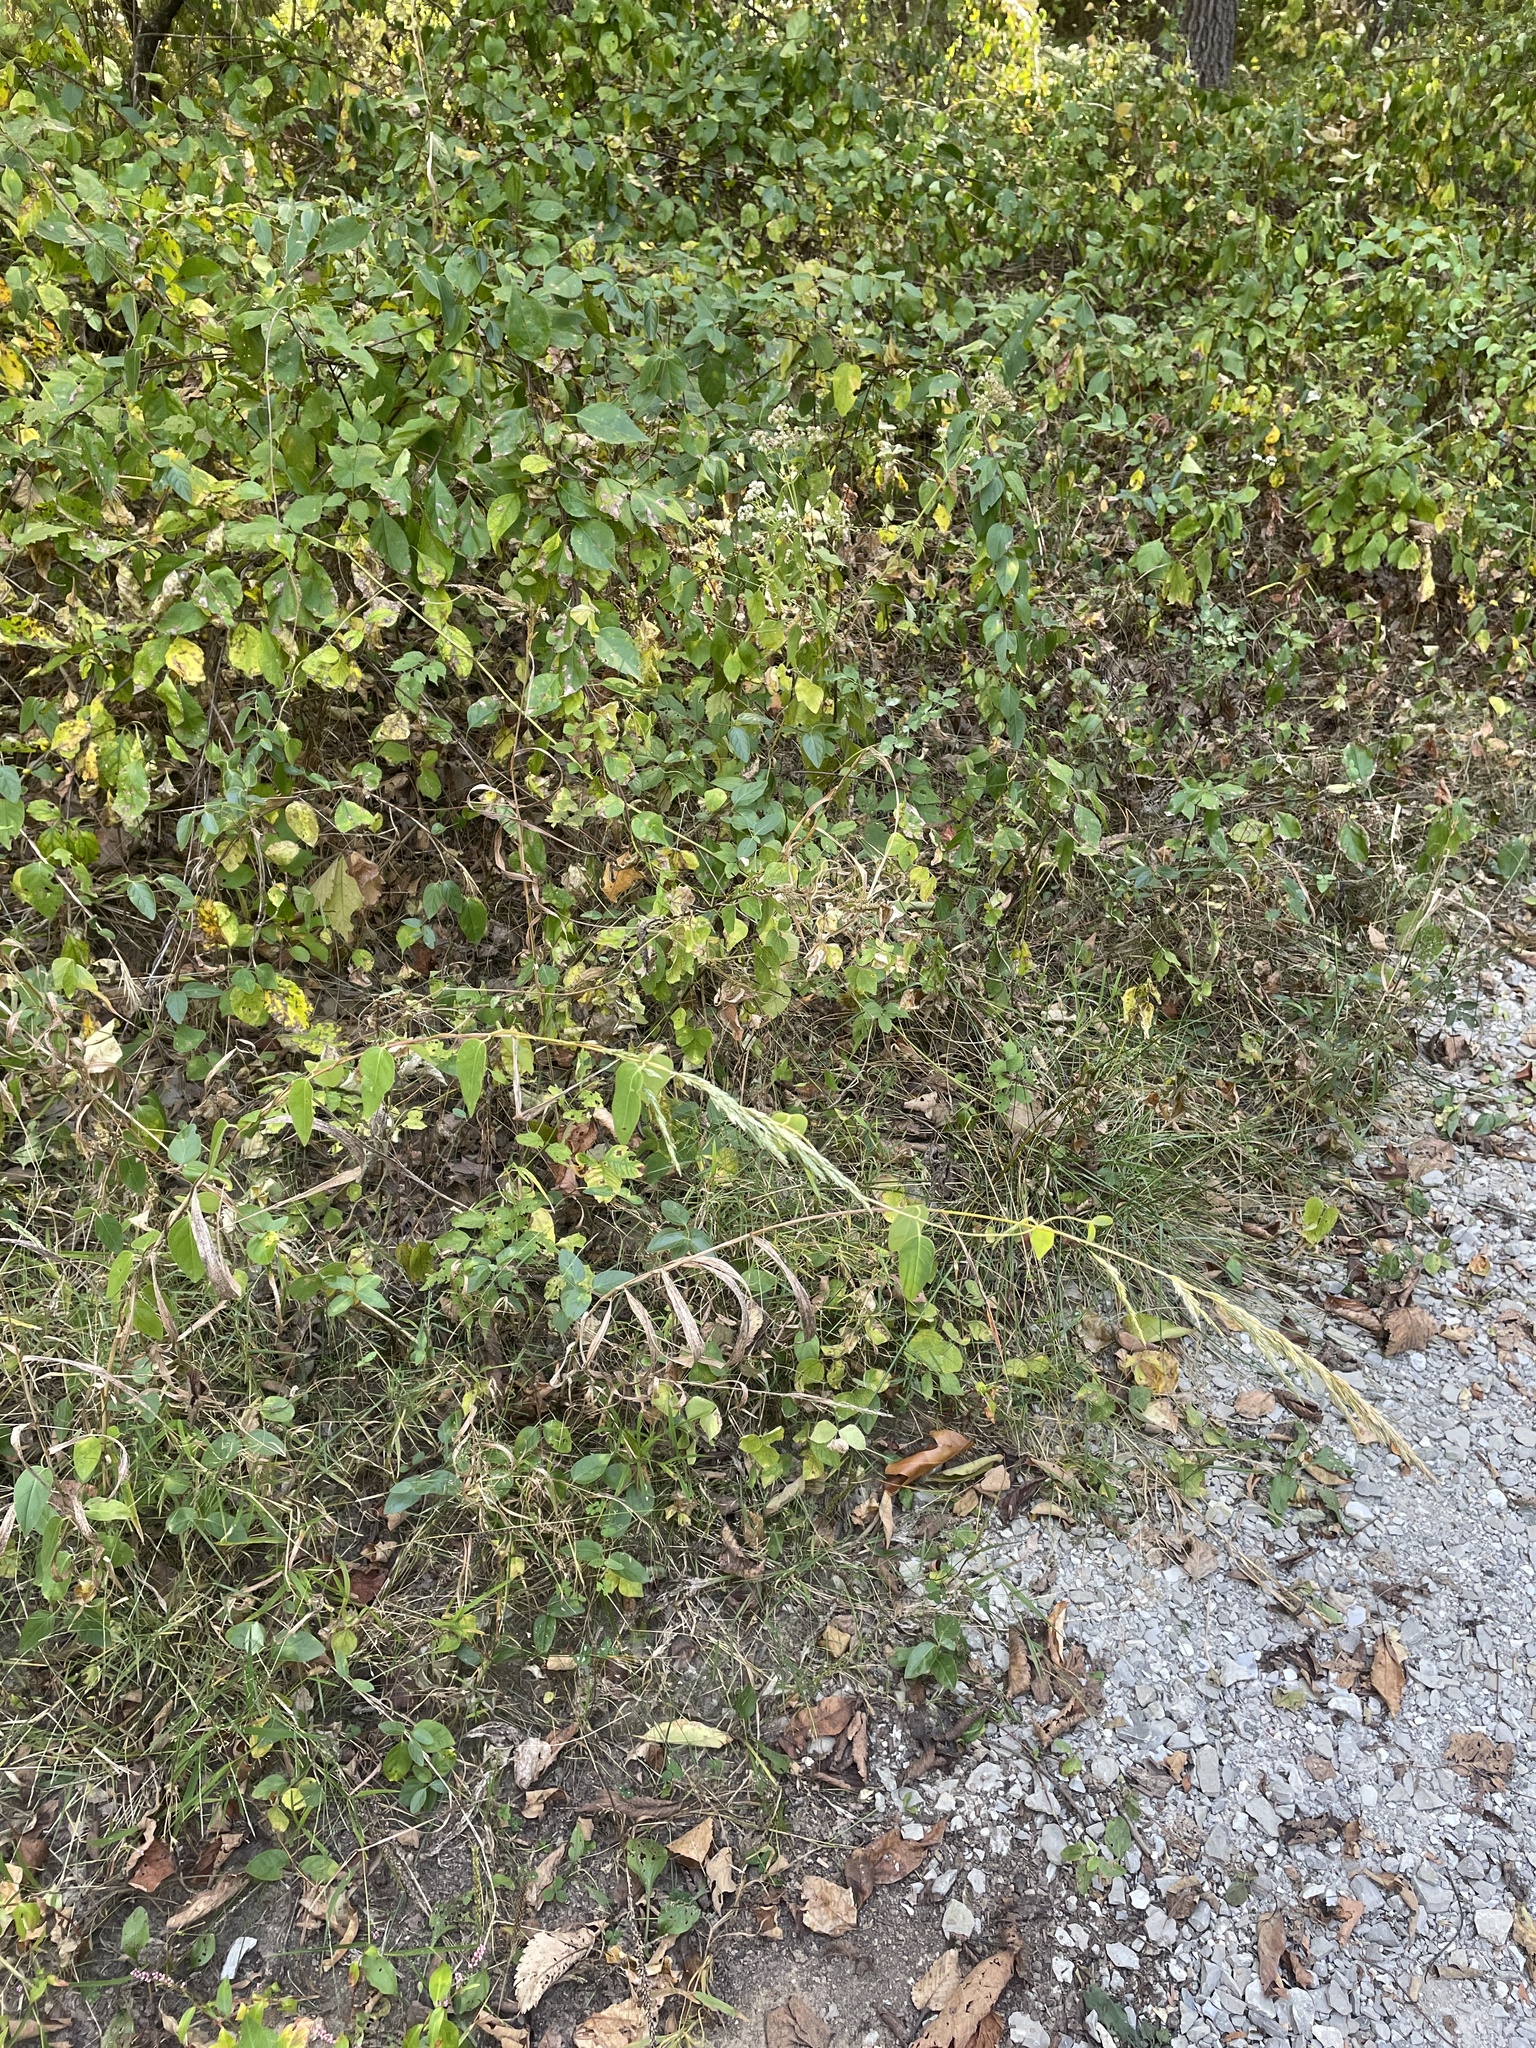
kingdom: Plantae
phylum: Tracheophyta
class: Liliopsida
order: Poales
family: Poaceae
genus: Cinna
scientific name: Cinna arundinacea
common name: Stout woodreed
